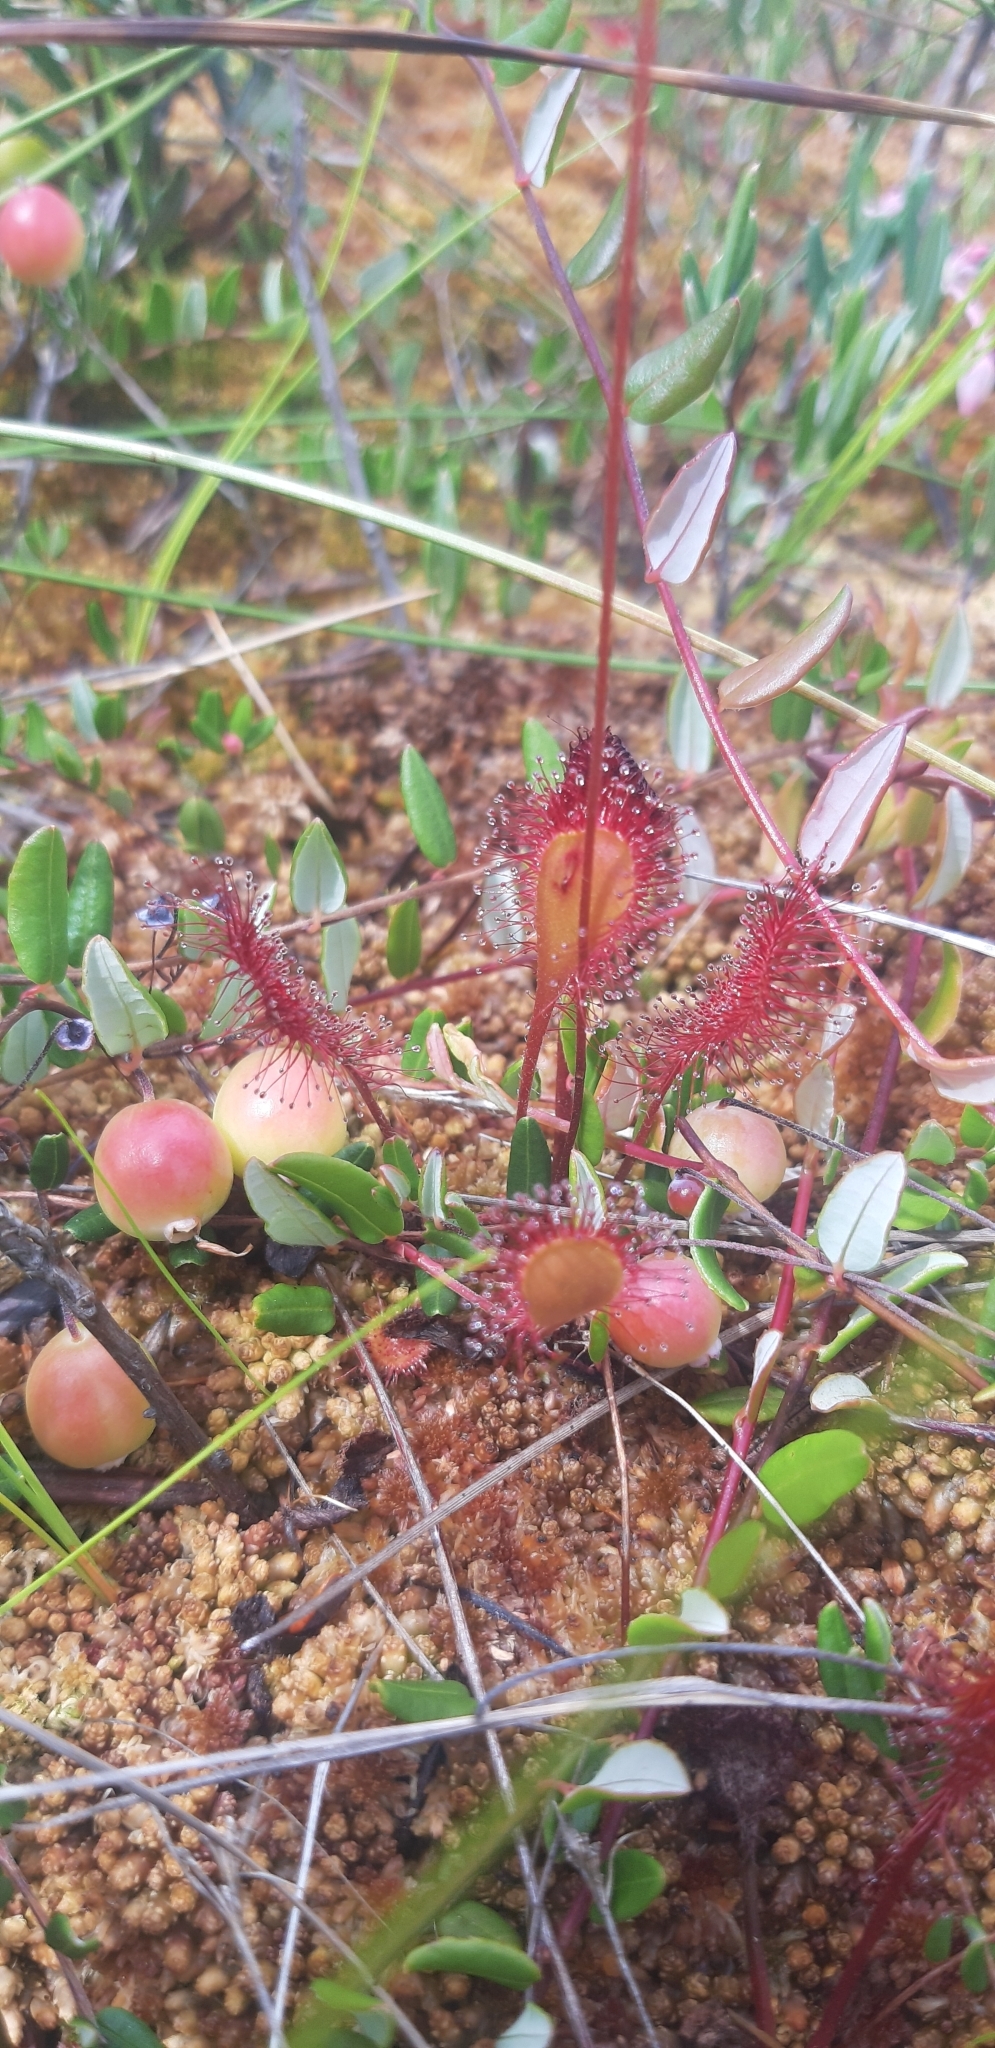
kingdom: Plantae
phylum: Tracheophyta
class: Magnoliopsida
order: Caryophyllales
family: Droseraceae
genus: Drosera
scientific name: Drosera intermedia
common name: Oblong-leaved sundew
